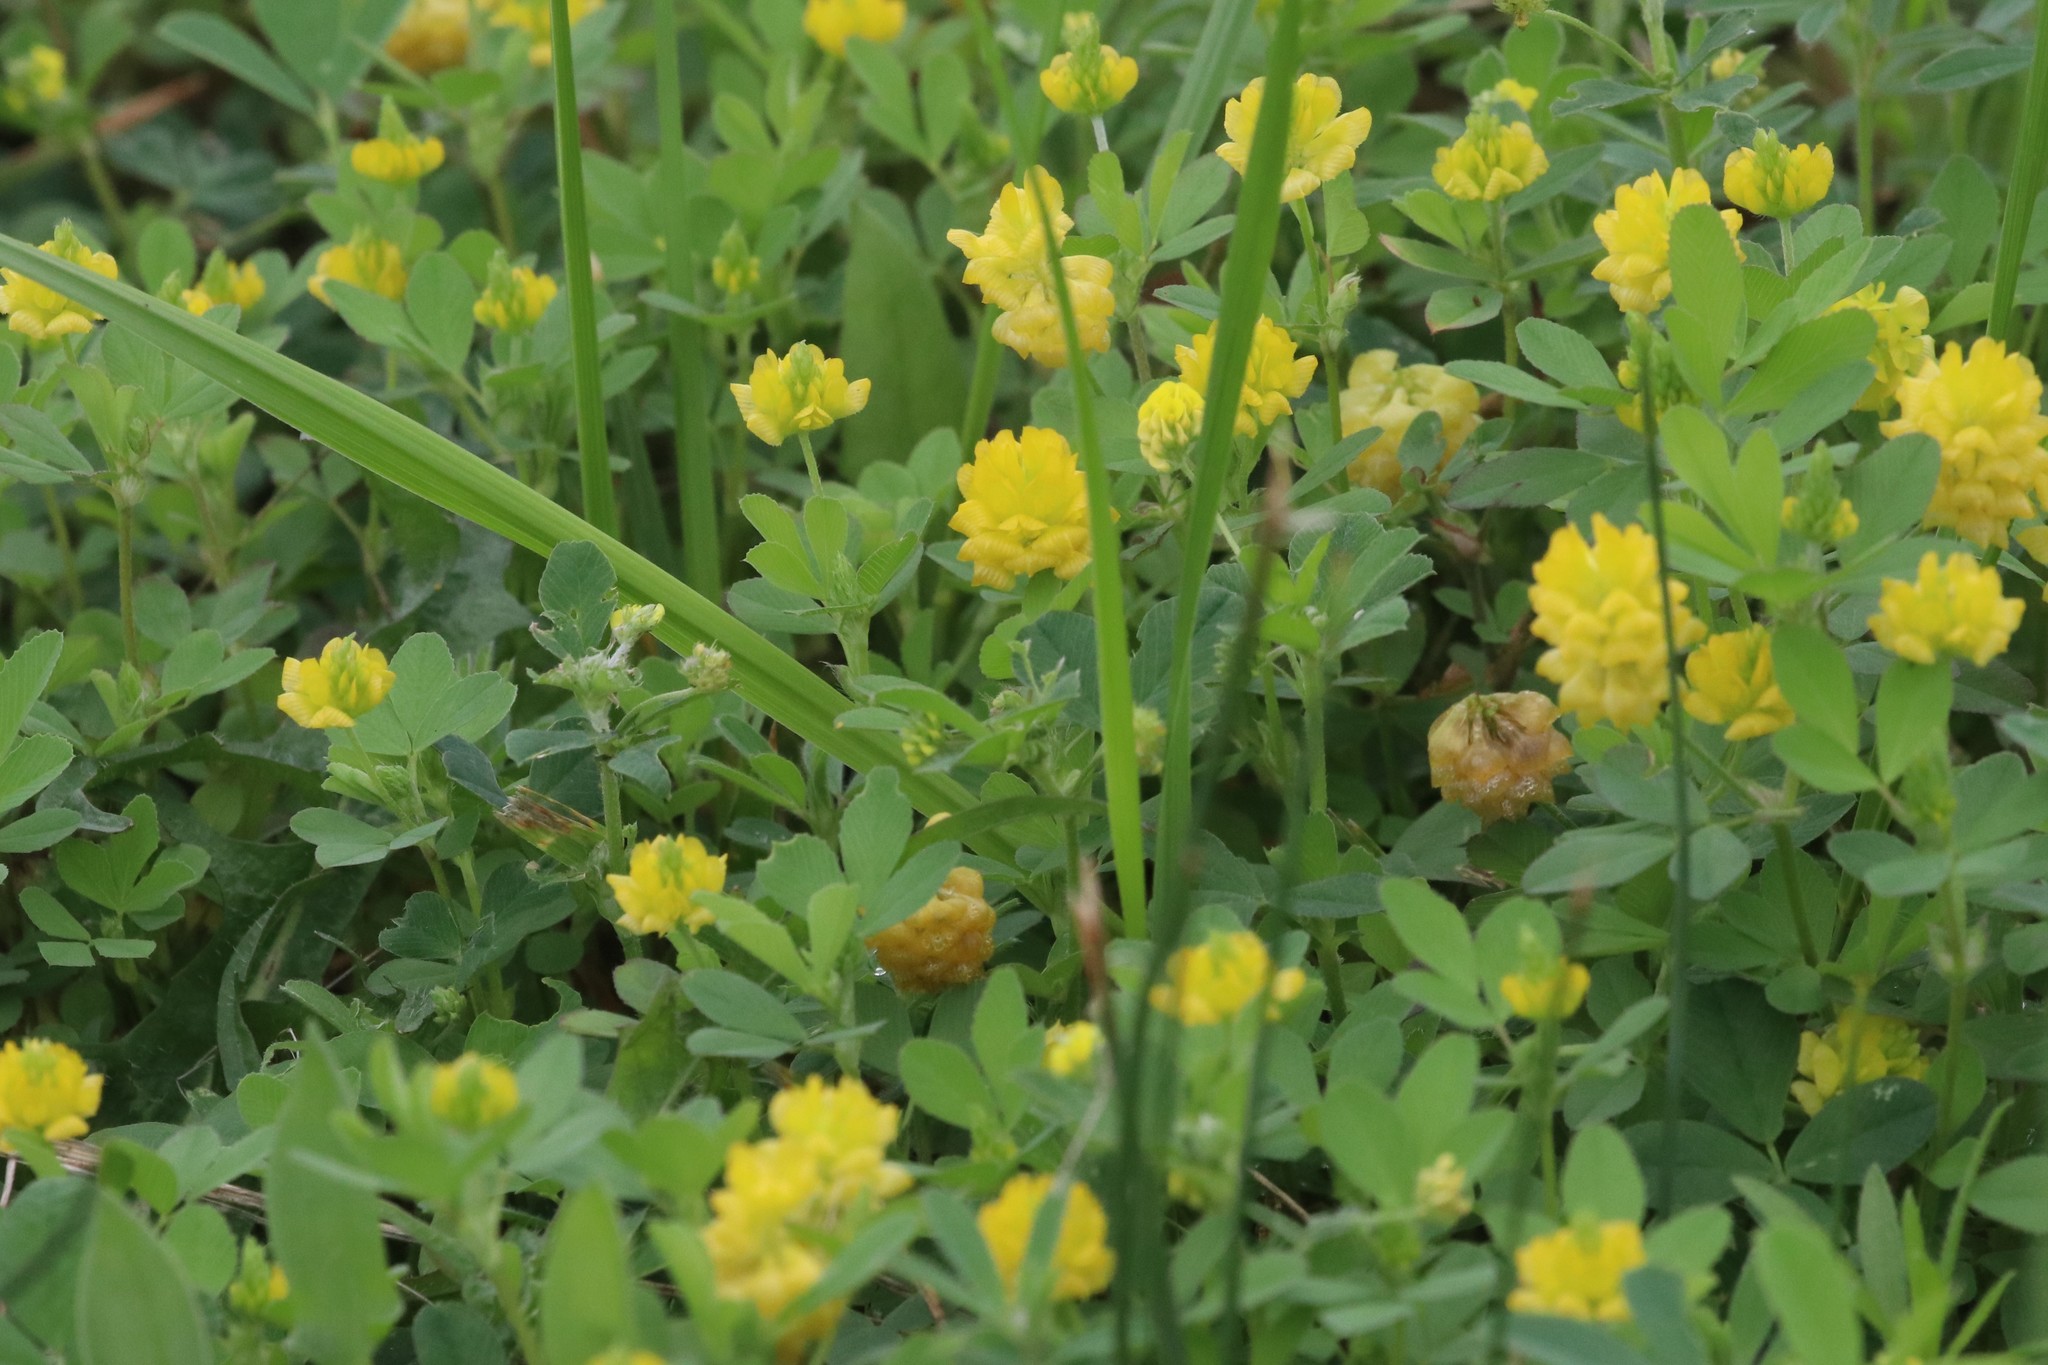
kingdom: Plantae
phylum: Tracheophyta
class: Magnoliopsida
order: Fabales
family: Fabaceae
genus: Trifolium
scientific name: Trifolium campestre
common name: Field clover
